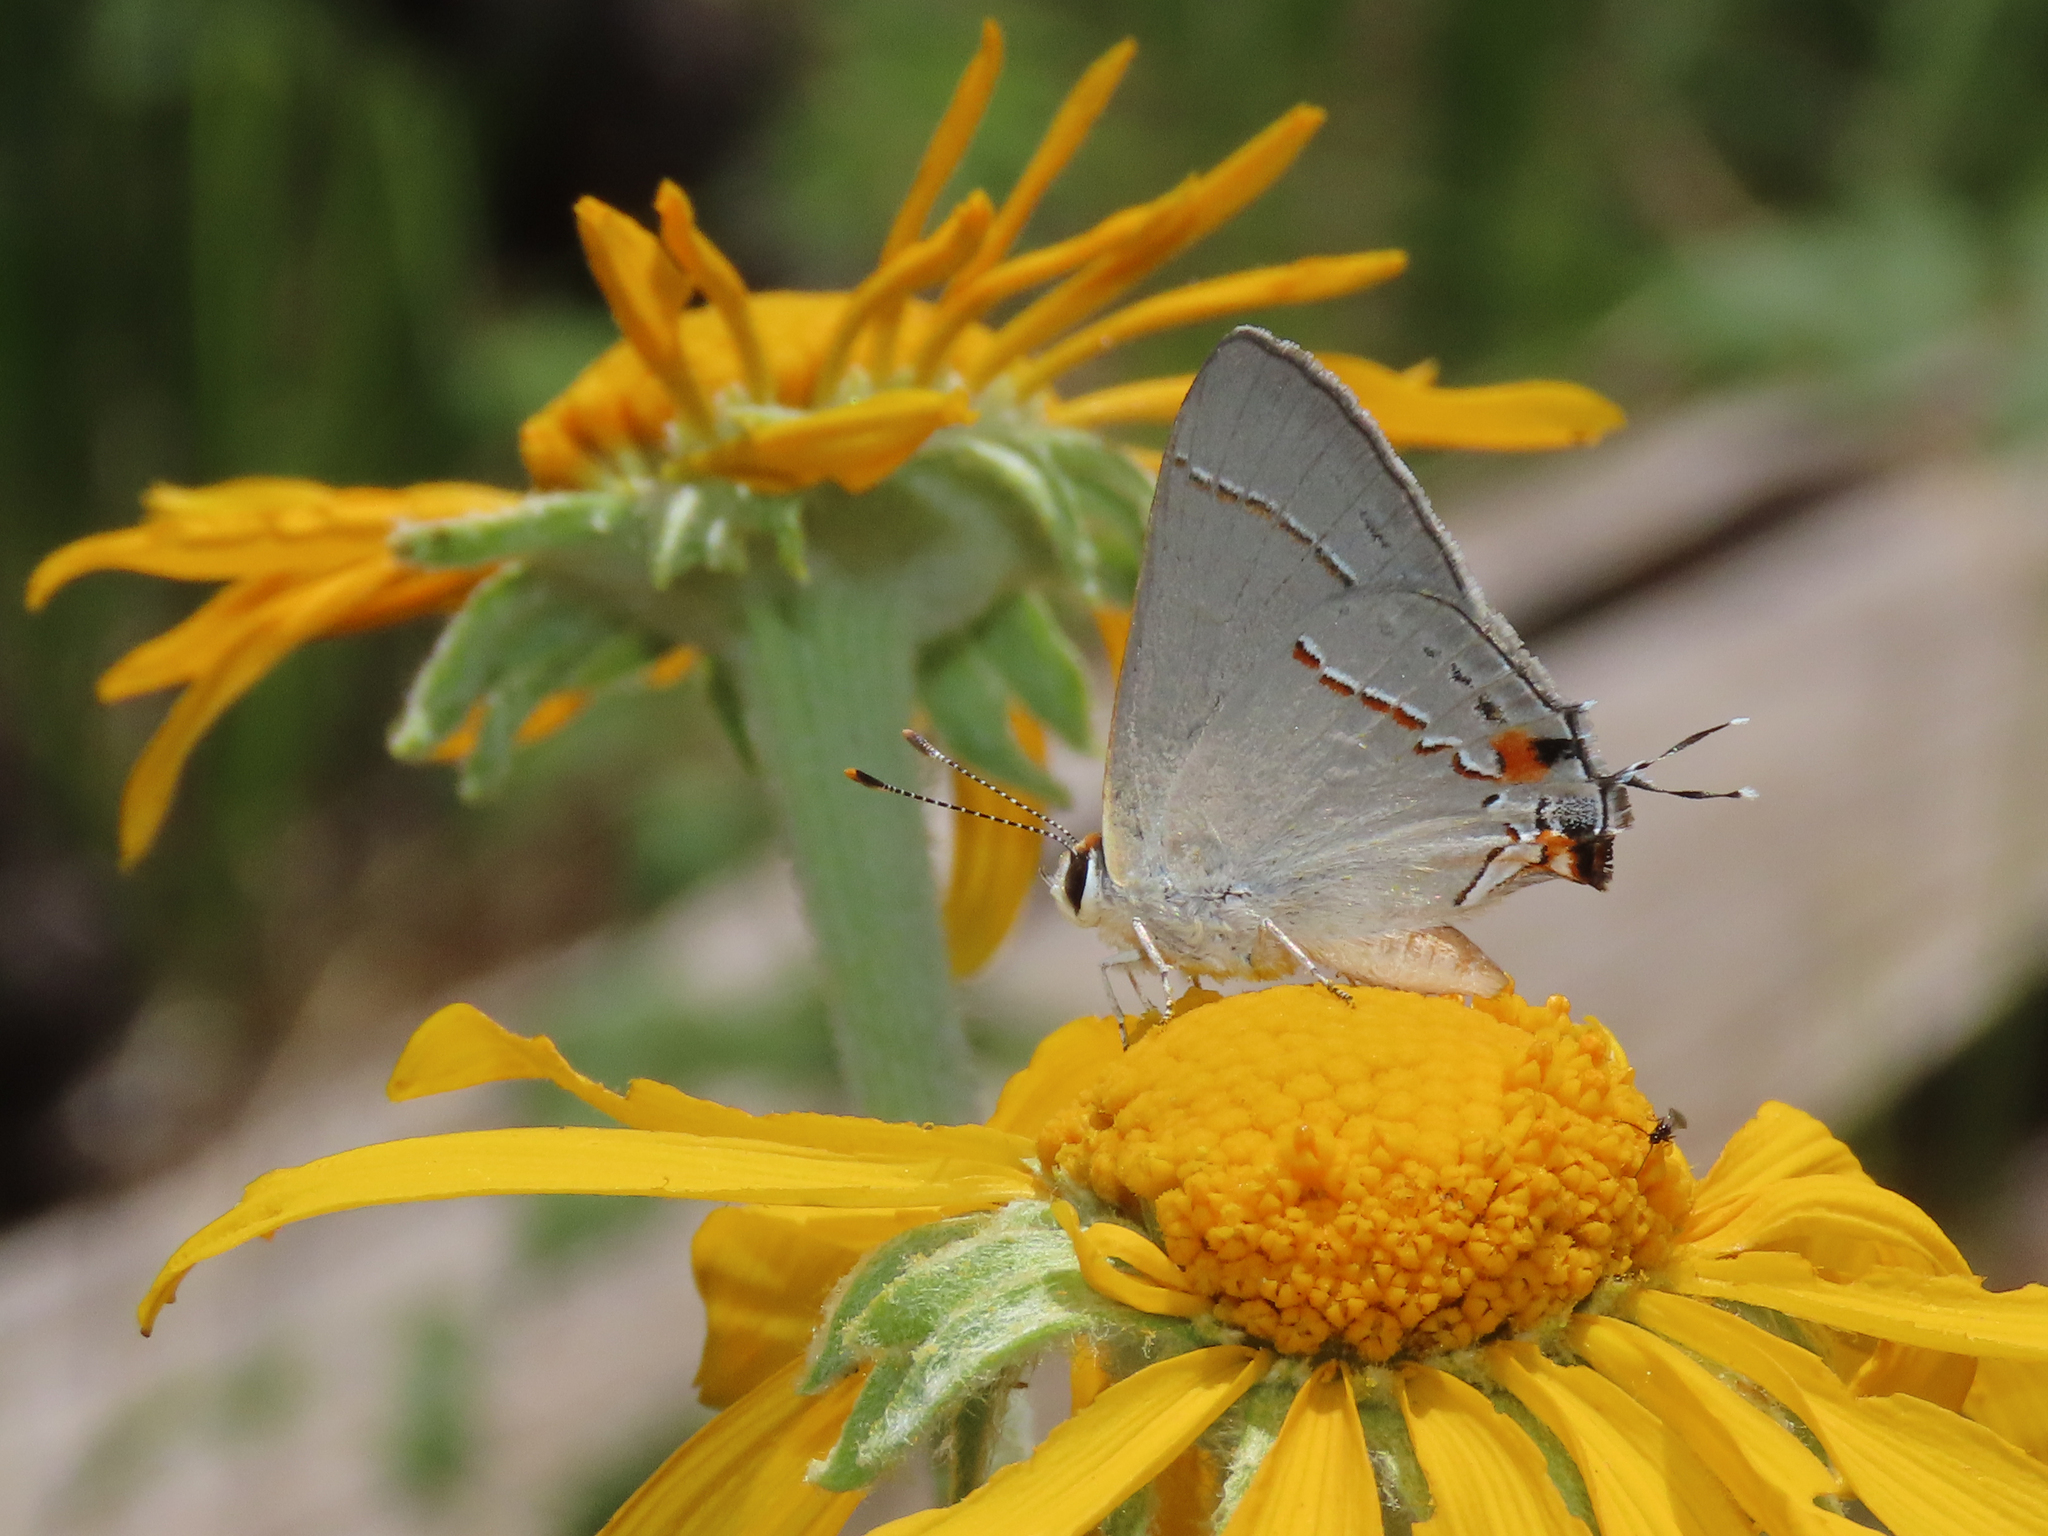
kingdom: Animalia
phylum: Arthropoda
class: Insecta
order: Lepidoptera
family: Lycaenidae
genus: Strymon
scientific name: Strymon melinus
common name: Gray hairstreak
